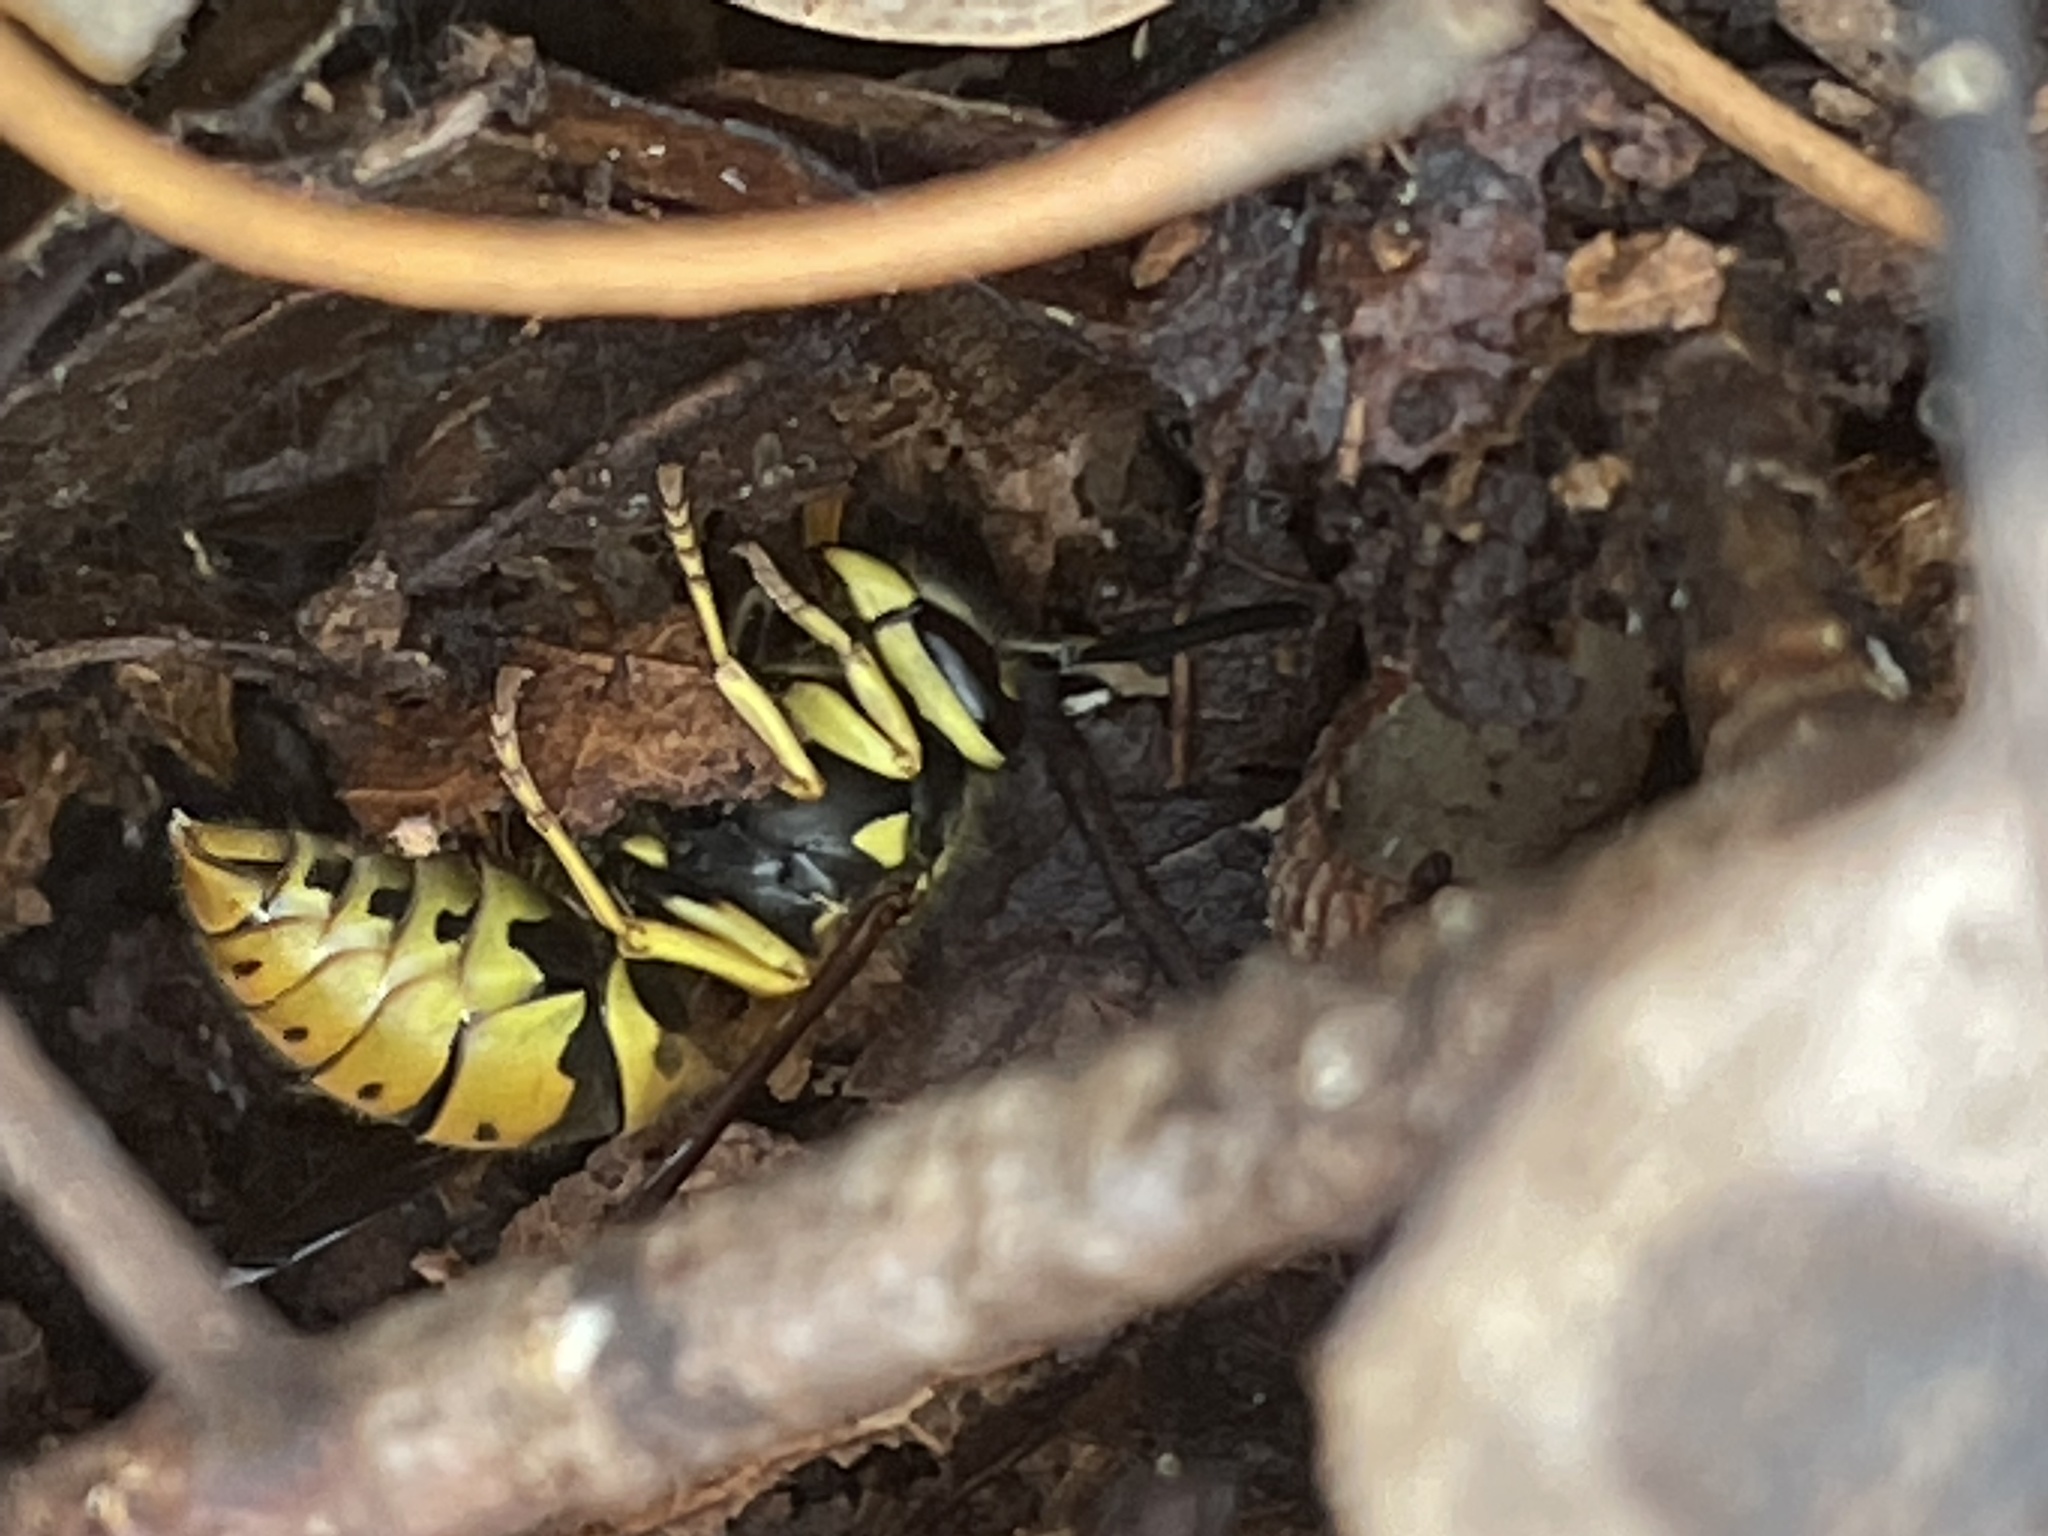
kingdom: Animalia
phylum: Arthropoda
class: Insecta
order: Hymenoptera
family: Vespidae
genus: Vespula
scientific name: Vespula
